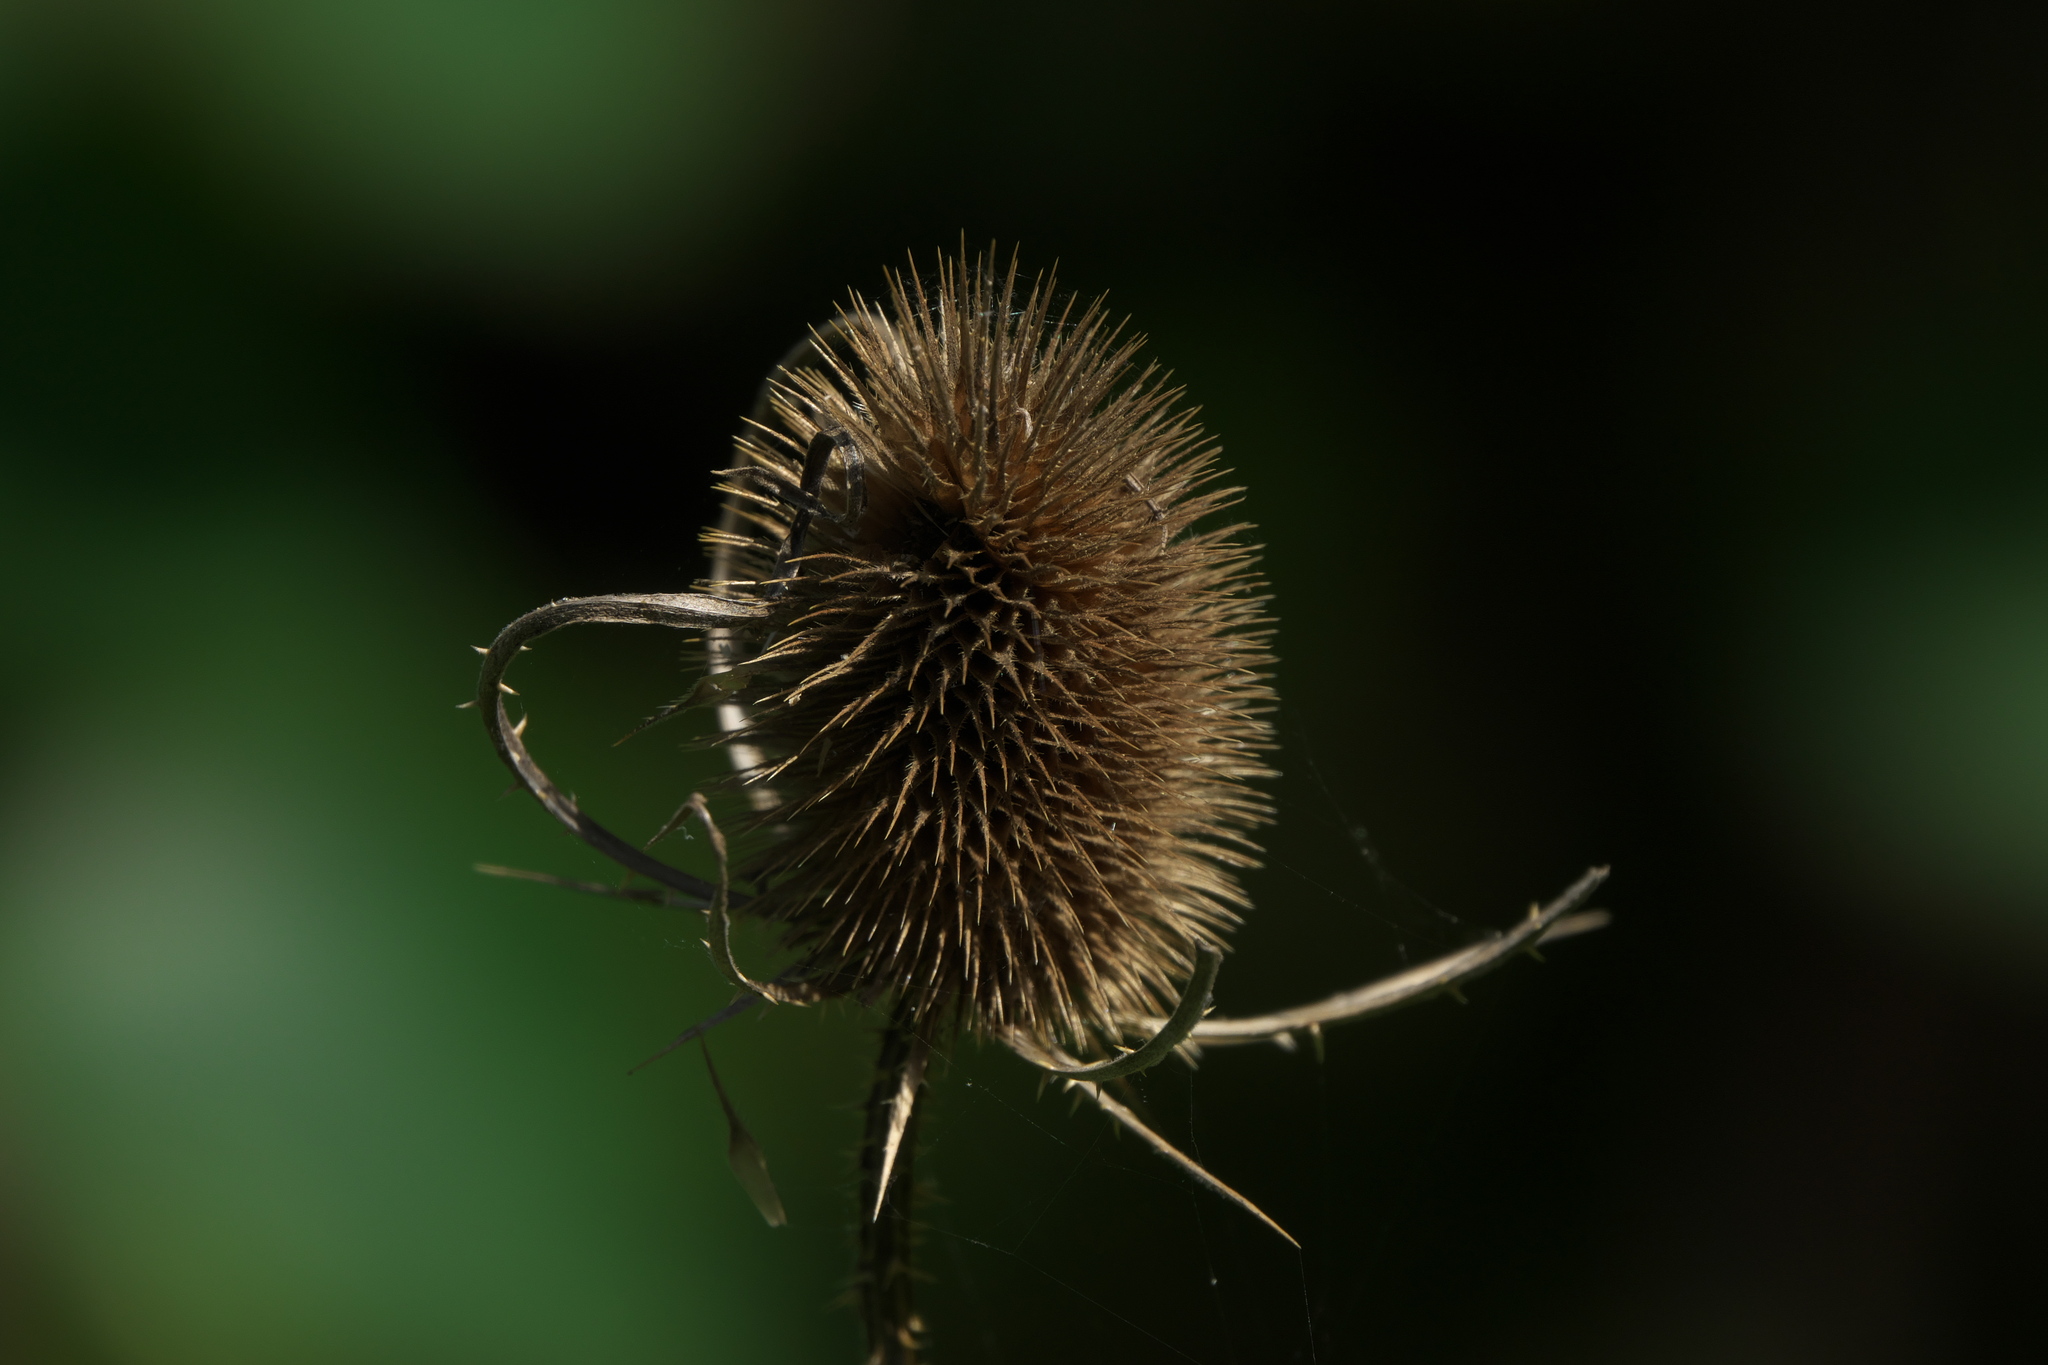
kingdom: Plantae
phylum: Tracheophyta
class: Magnoliopsida
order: Dipsacales
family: Caprifoliaceae
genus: Dipsacus
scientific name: Dipsacus fullonum
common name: Teasel
